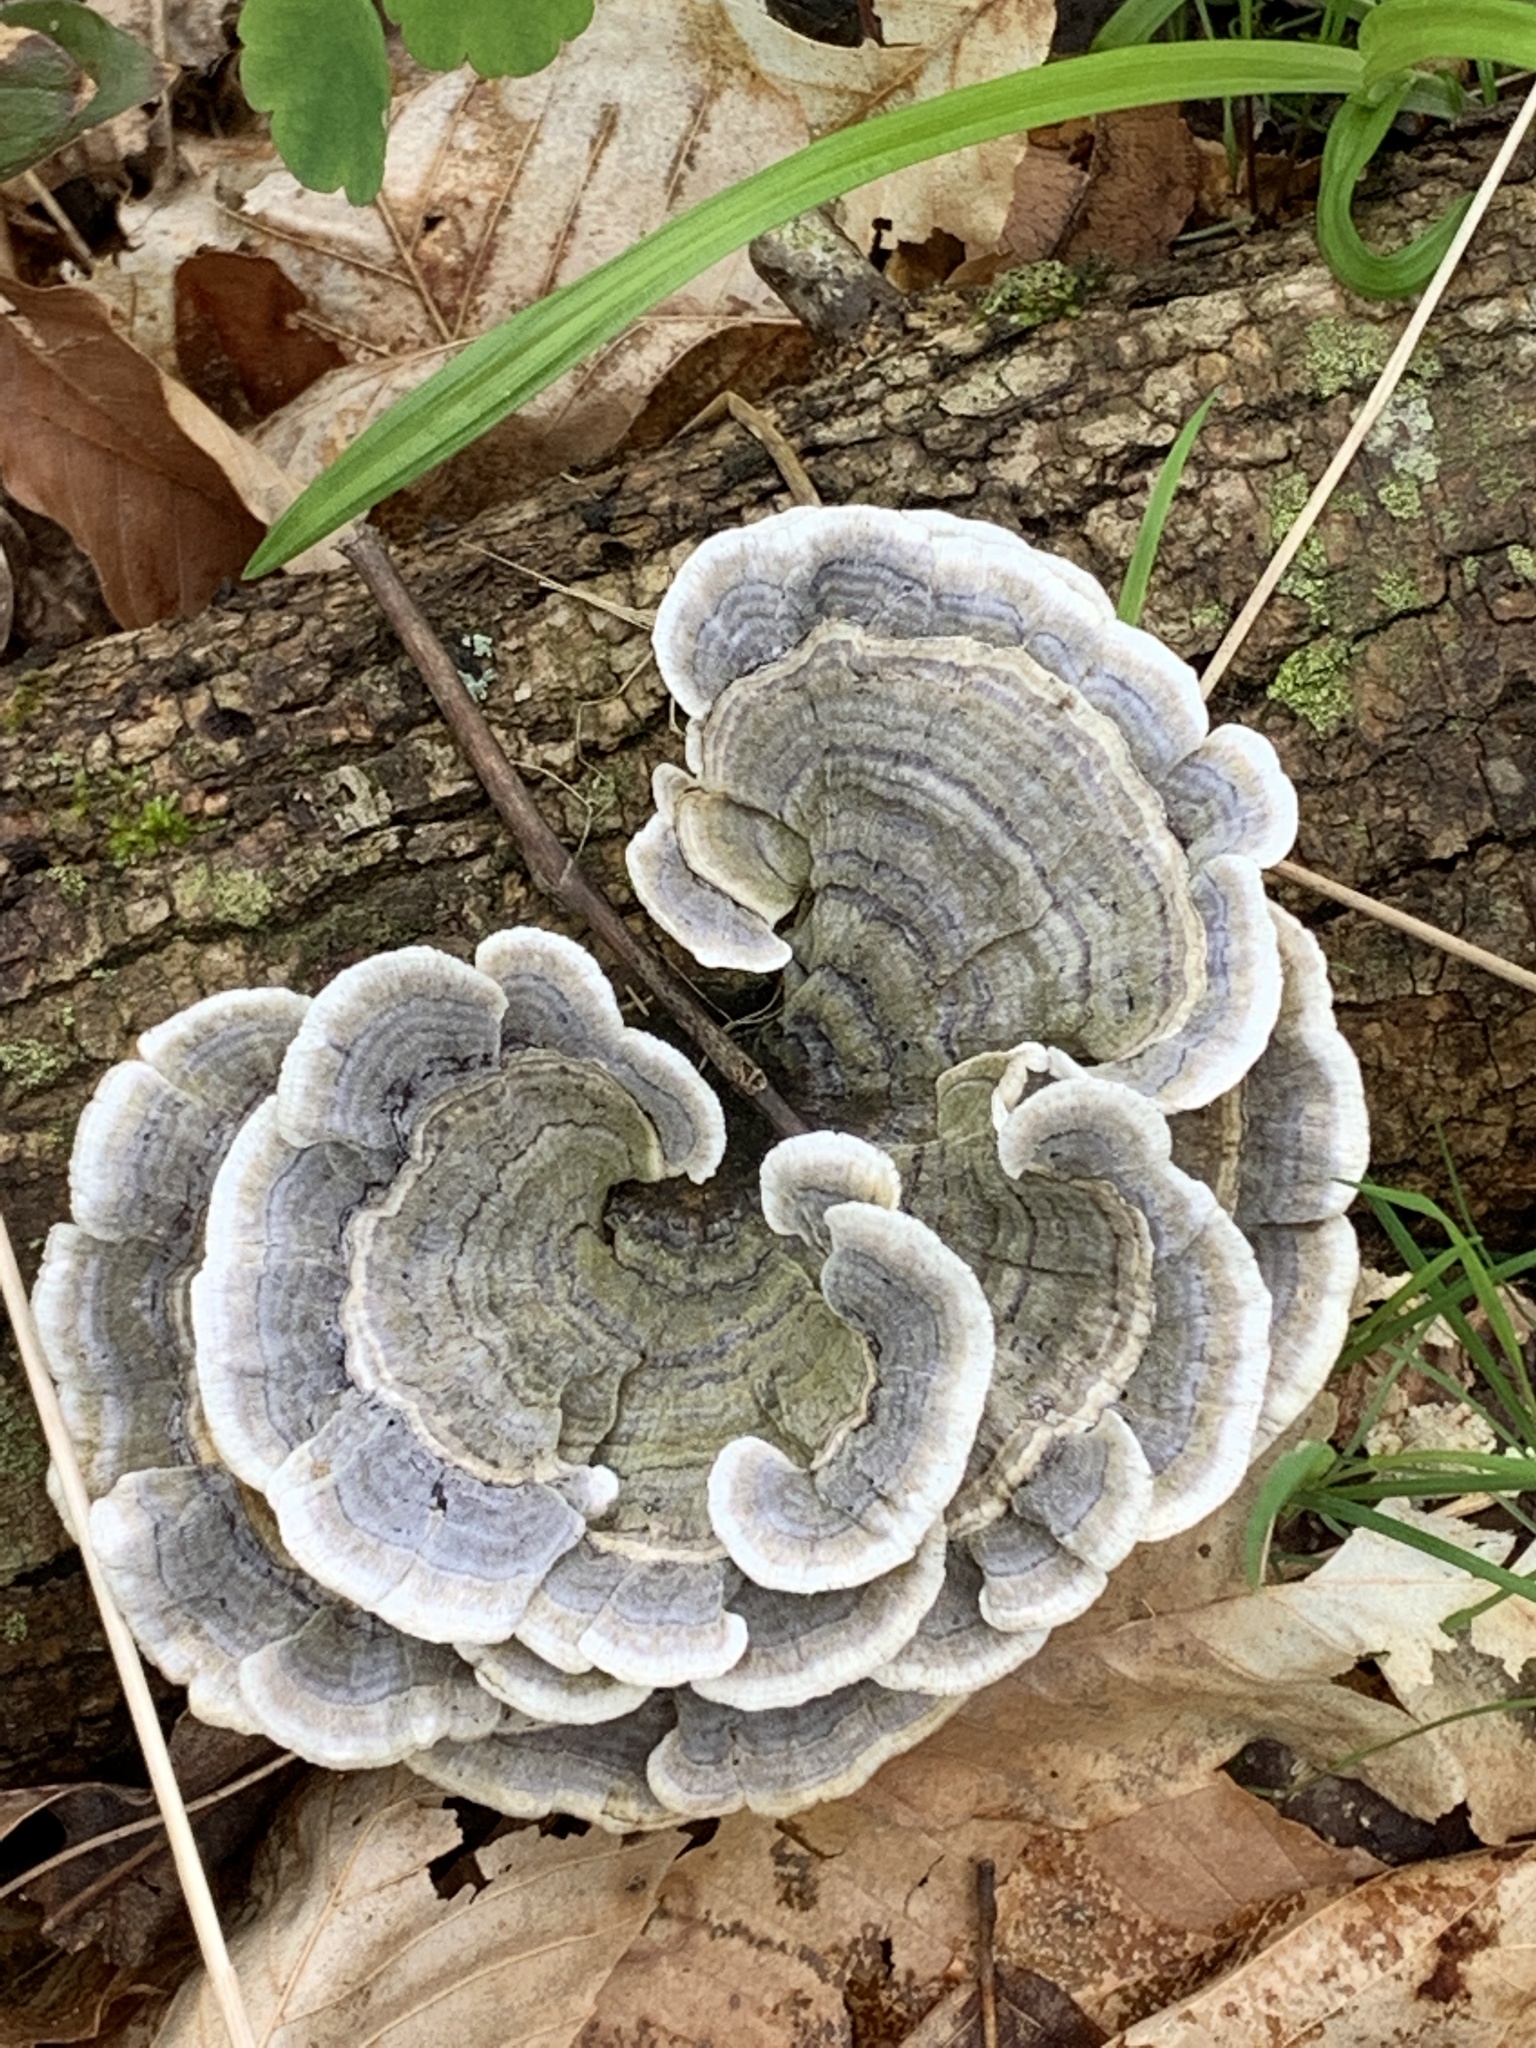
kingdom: Fungi
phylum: Basidiomycota
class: Agaricomycetes
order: Polyporales
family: Polyporaceae
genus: Trametes
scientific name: Trametes versicolor
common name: Turkeytail
